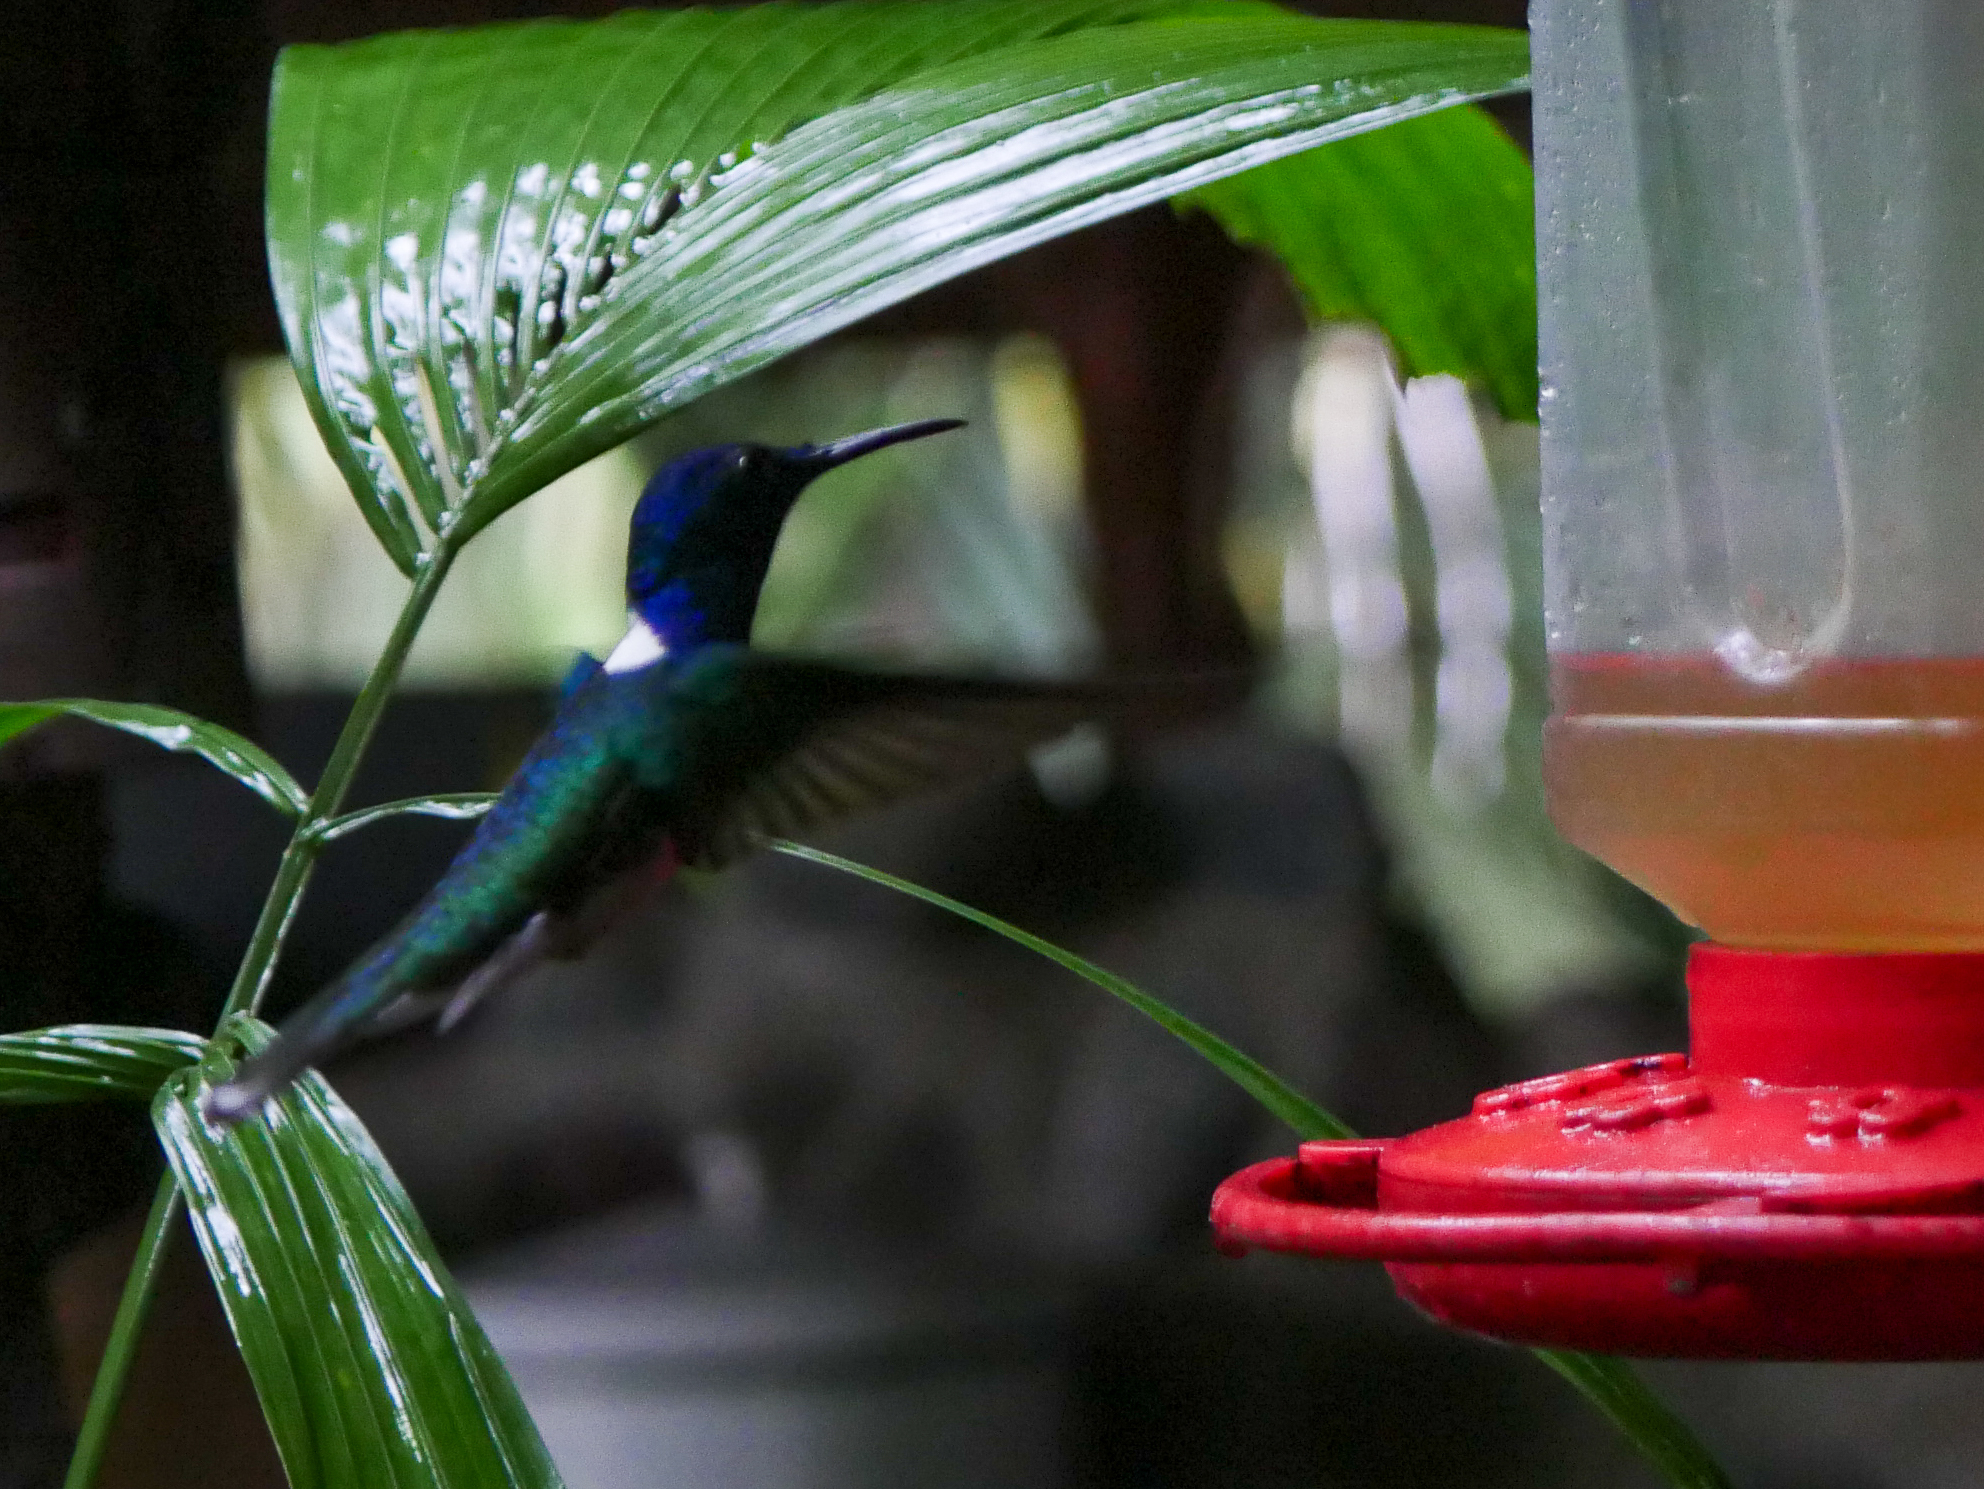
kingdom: Animalia
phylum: Chordata
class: Aves
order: Apodiformes
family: Trochilidae
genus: Florisuga
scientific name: Florisuga mellivora
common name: White-necked jacobin
